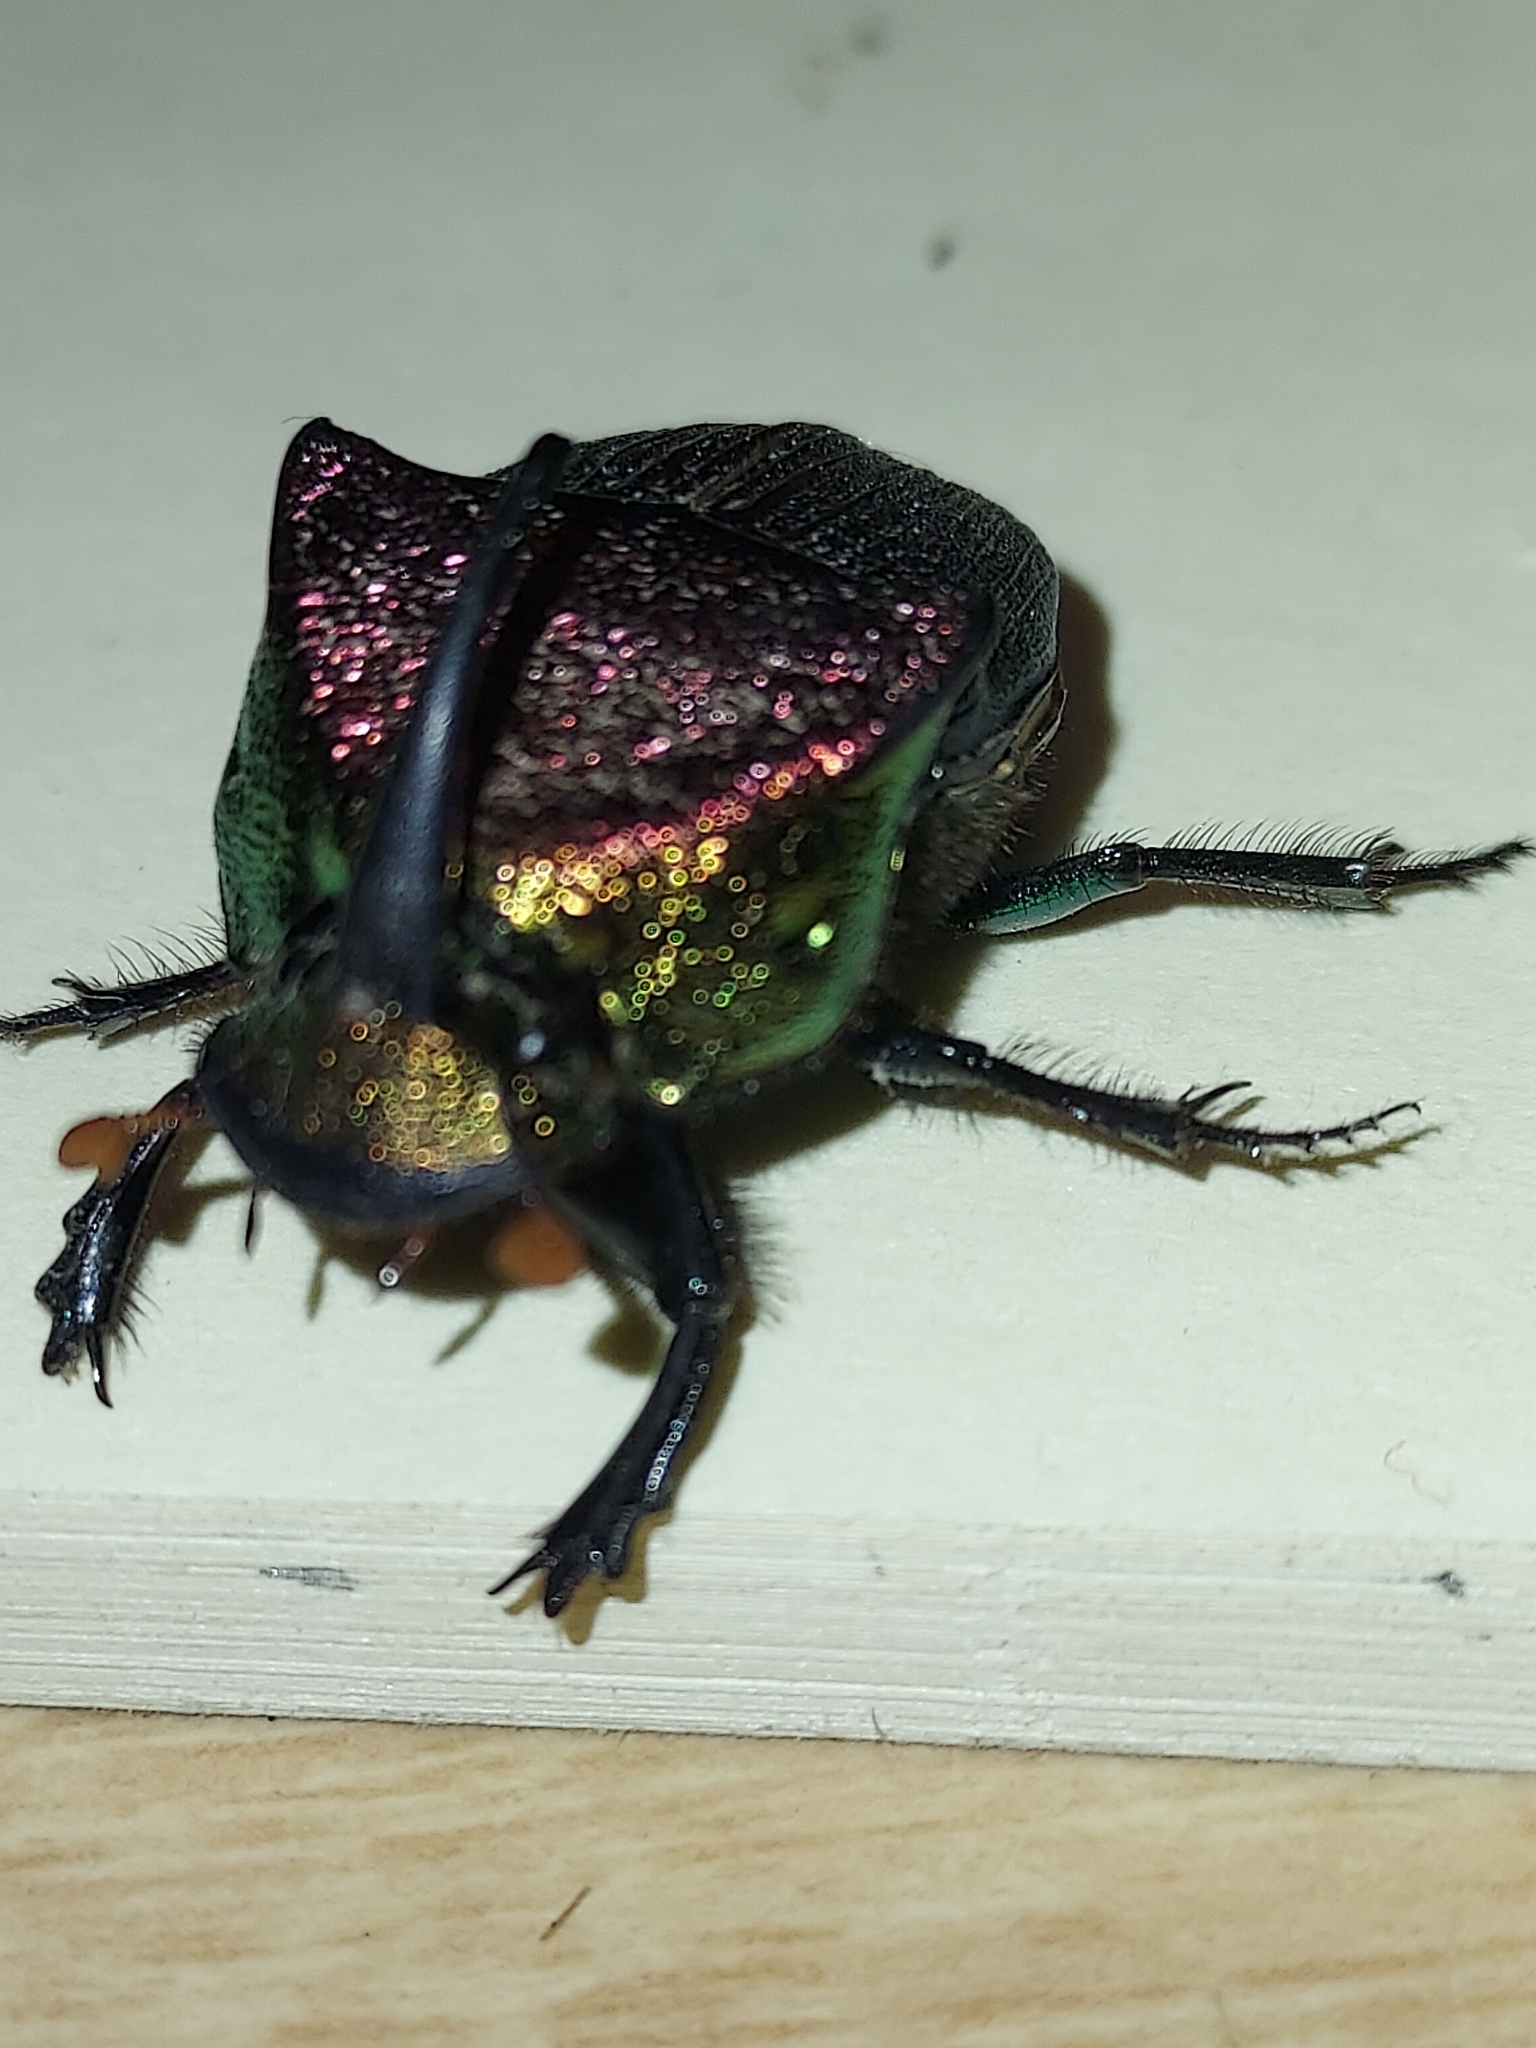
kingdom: Animalia
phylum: Arthropoda
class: Insecta
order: Coleoptera
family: Scarabaeidae
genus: Phanaeus
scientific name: Phanaeus vindex
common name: Rainbow scarab
